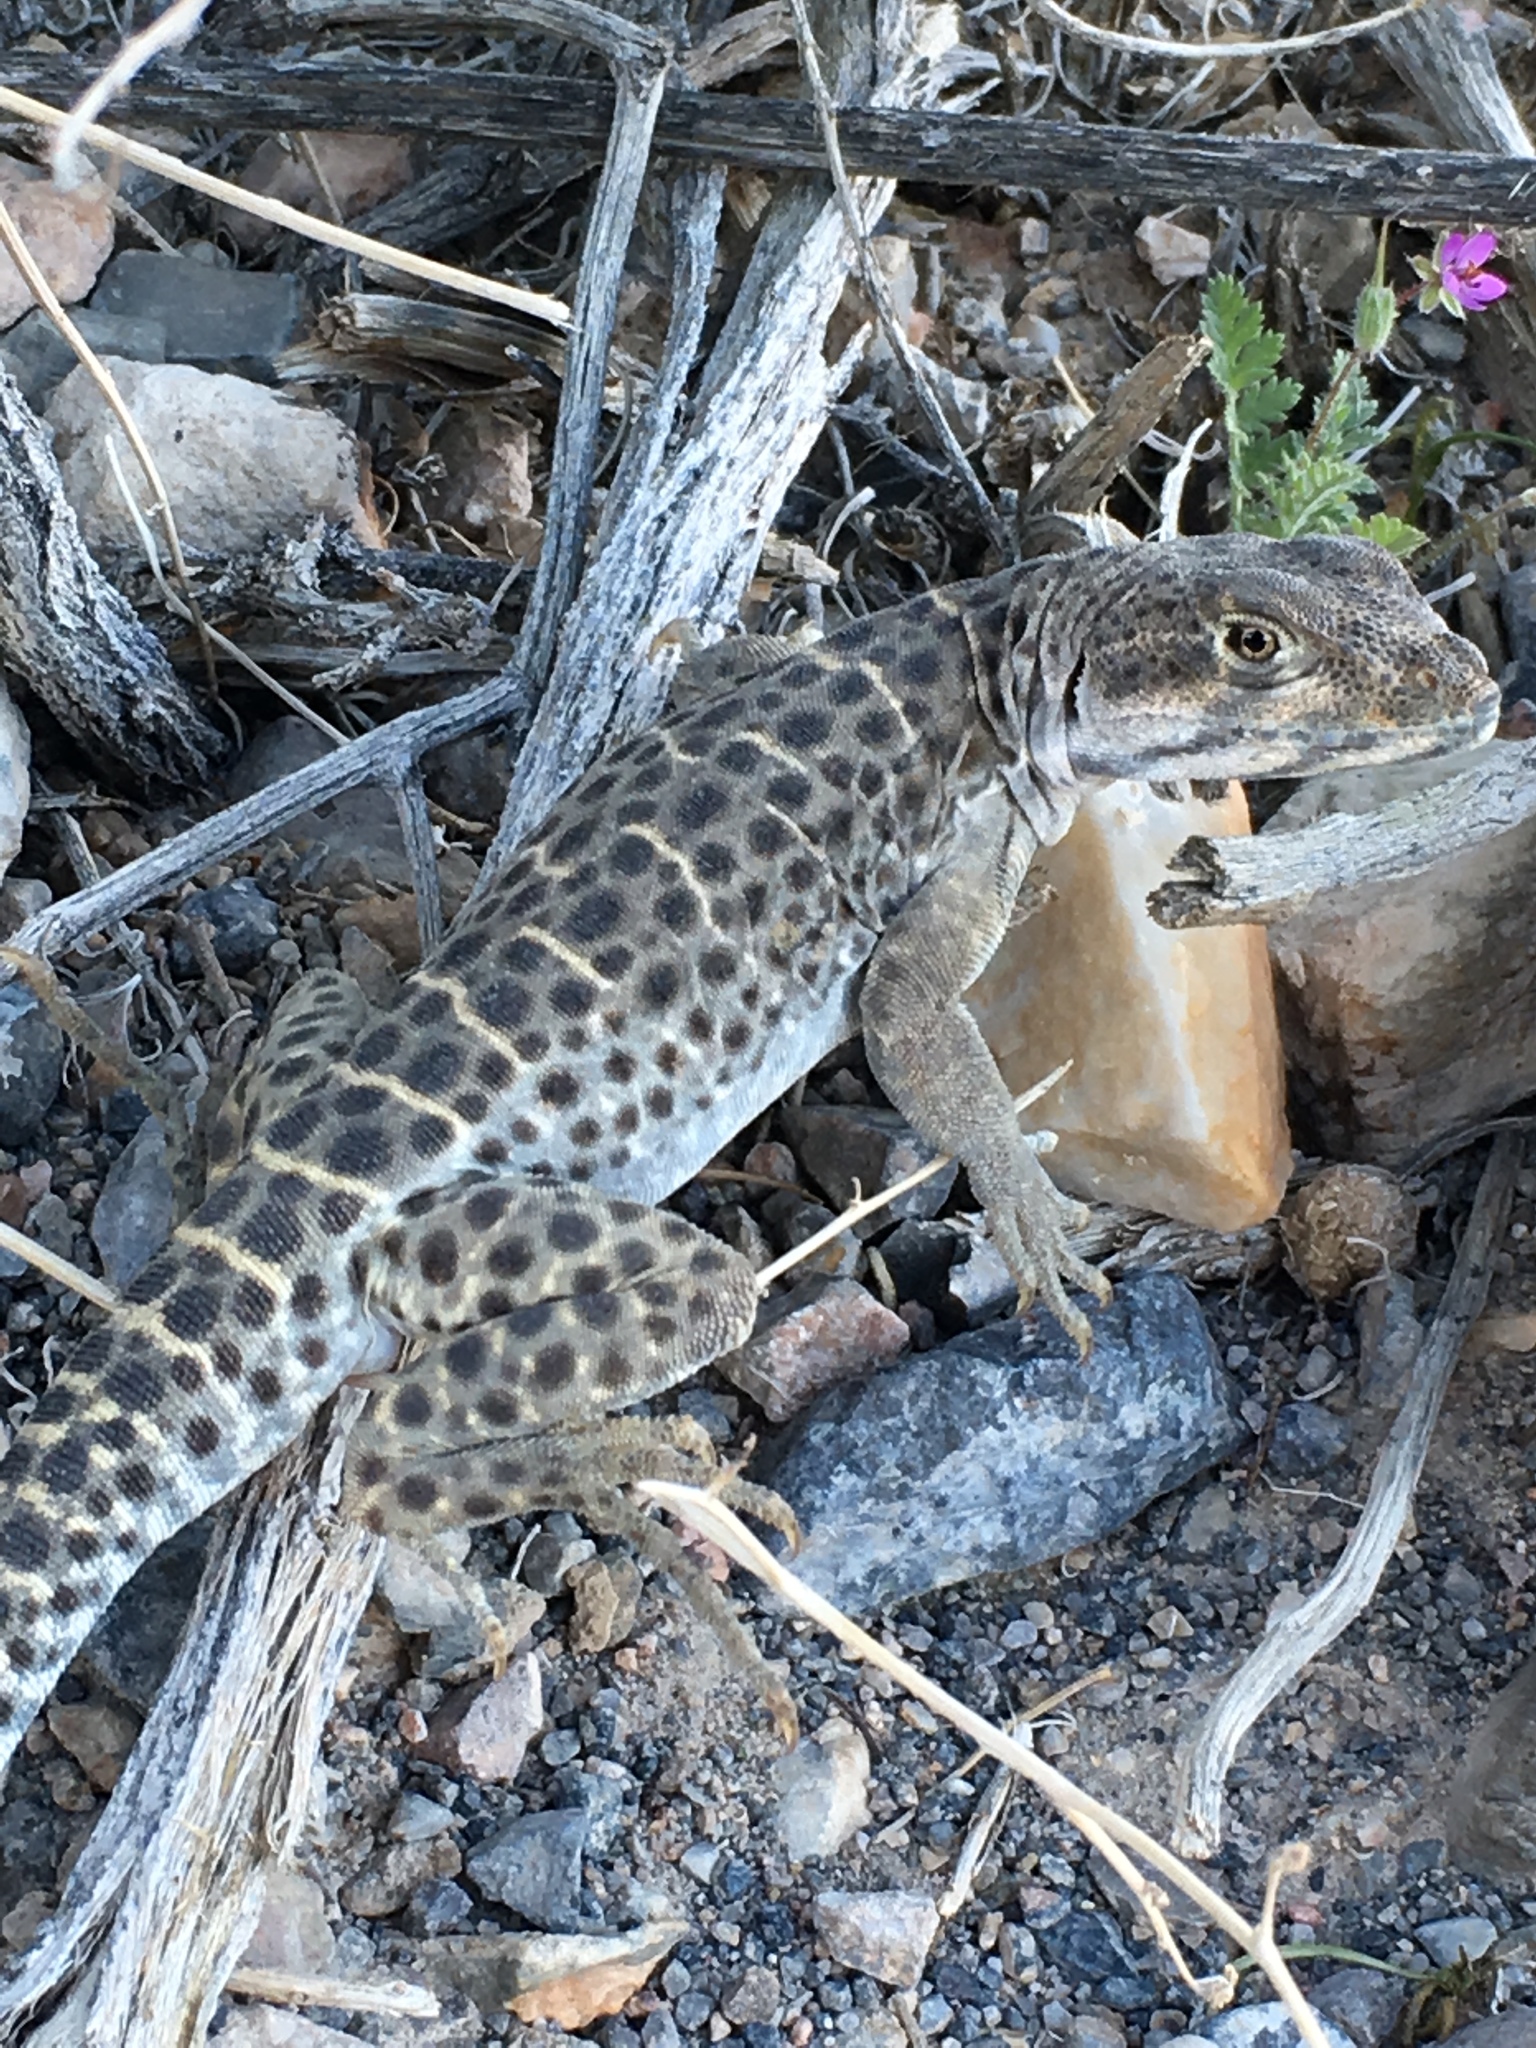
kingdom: Animalia
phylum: Chordata
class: Squamata
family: Crotaphytidae
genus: Gambelia
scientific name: Gambelia wislizenii
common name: Longnose leopard lizard
